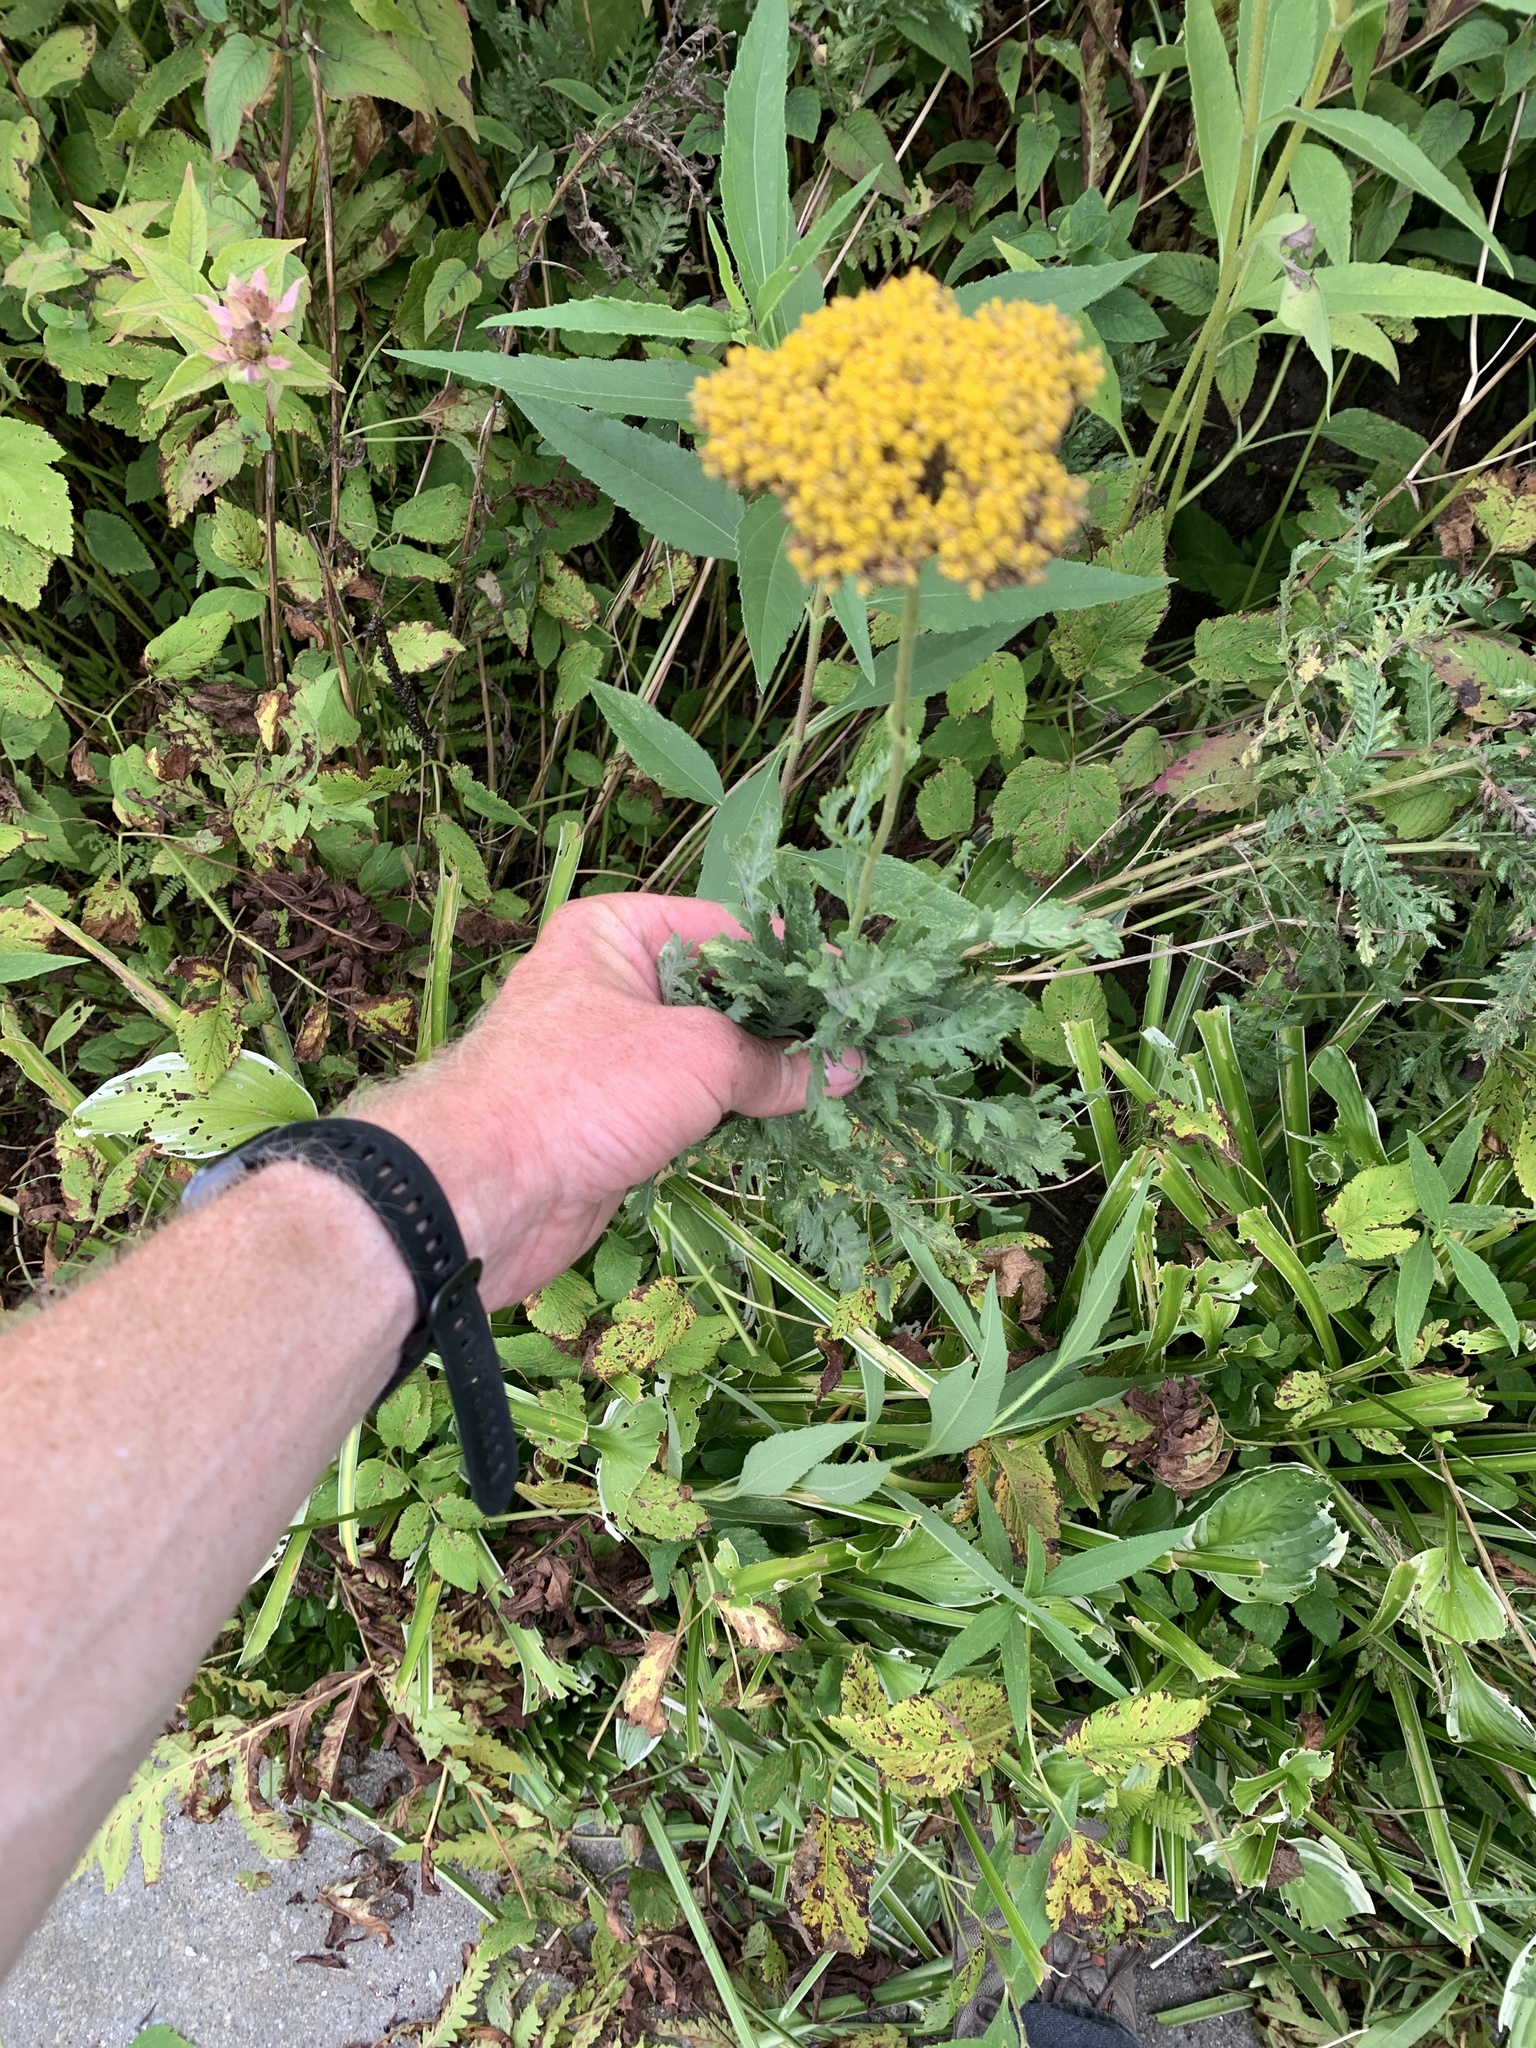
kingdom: Plantae
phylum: Tracheophyta
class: Magnoliopsida
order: Asterales
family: Asteraceae
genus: Tanacetum
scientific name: Tanacetum vulgare
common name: Common tansy
